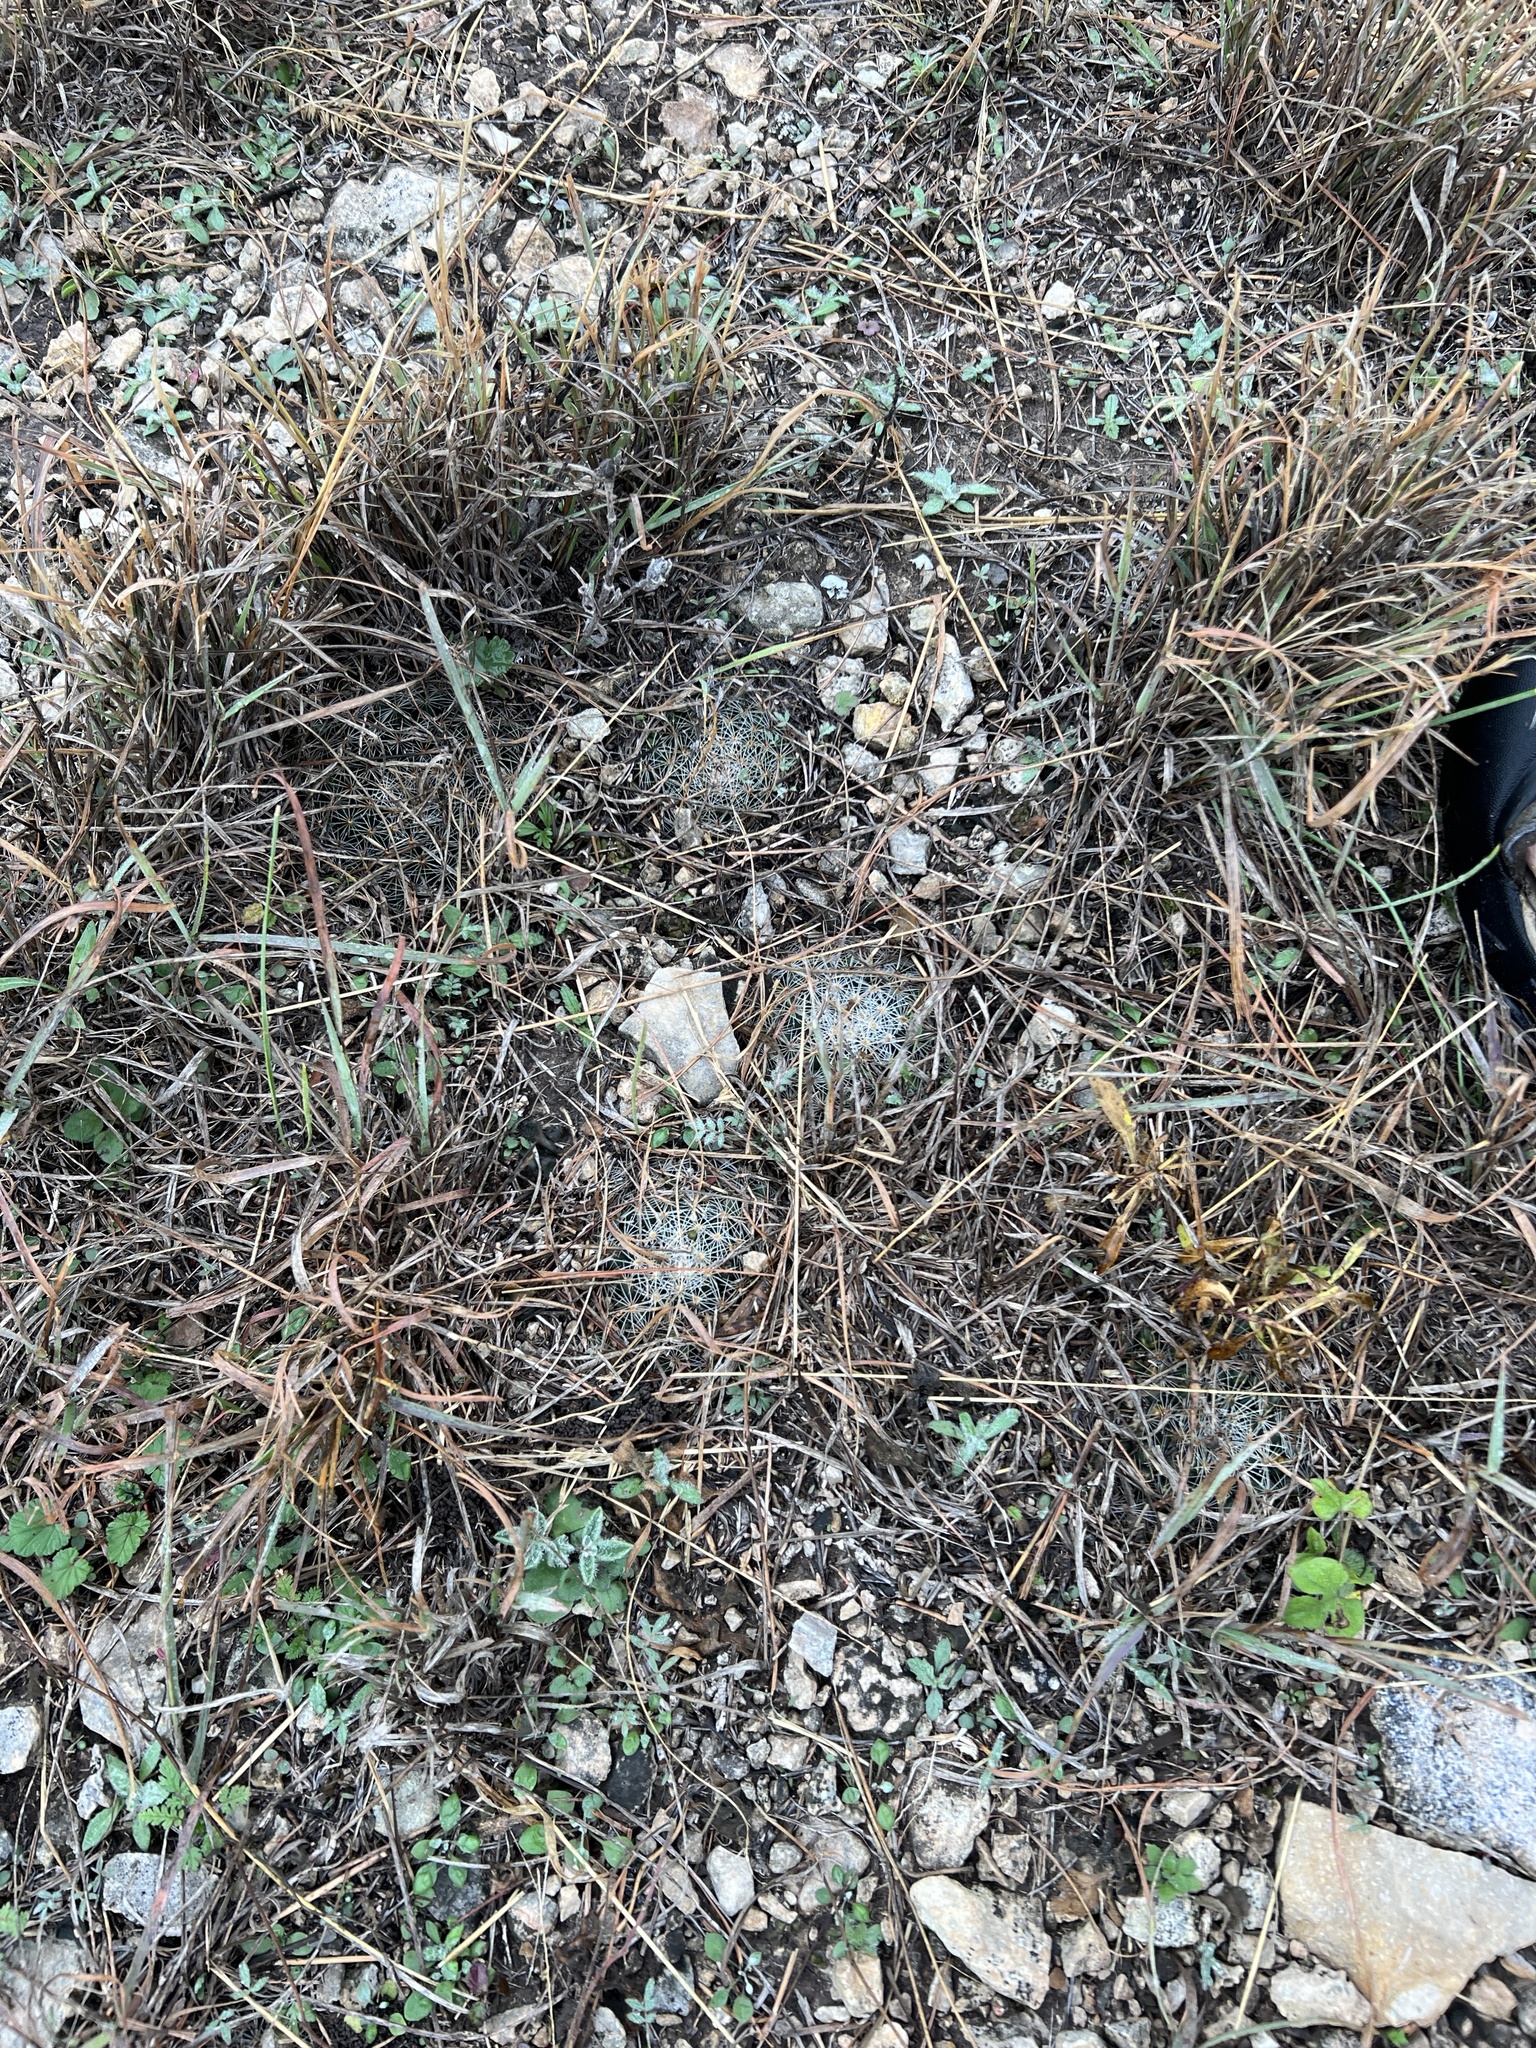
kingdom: Plantae
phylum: Tracheophyta
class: Magnoliopsida
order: Caryophyllales
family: Cactaceae
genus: Mammillaria
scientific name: Mammillaria heyderi
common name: Little nipple cactus
